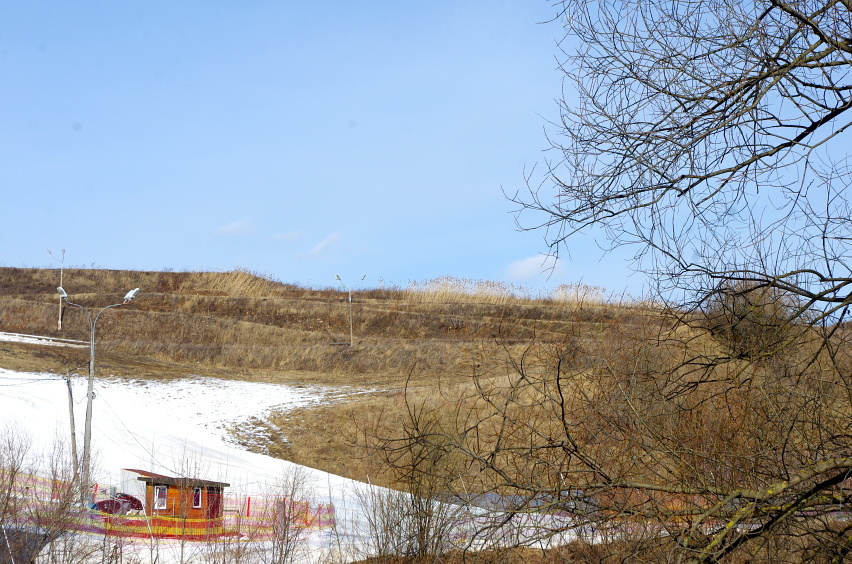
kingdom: Plantae
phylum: Tracheophyta
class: Liliopsida
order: Poales
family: Poaceae
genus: Phragmites
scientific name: Phragmites australis
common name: Common reed
